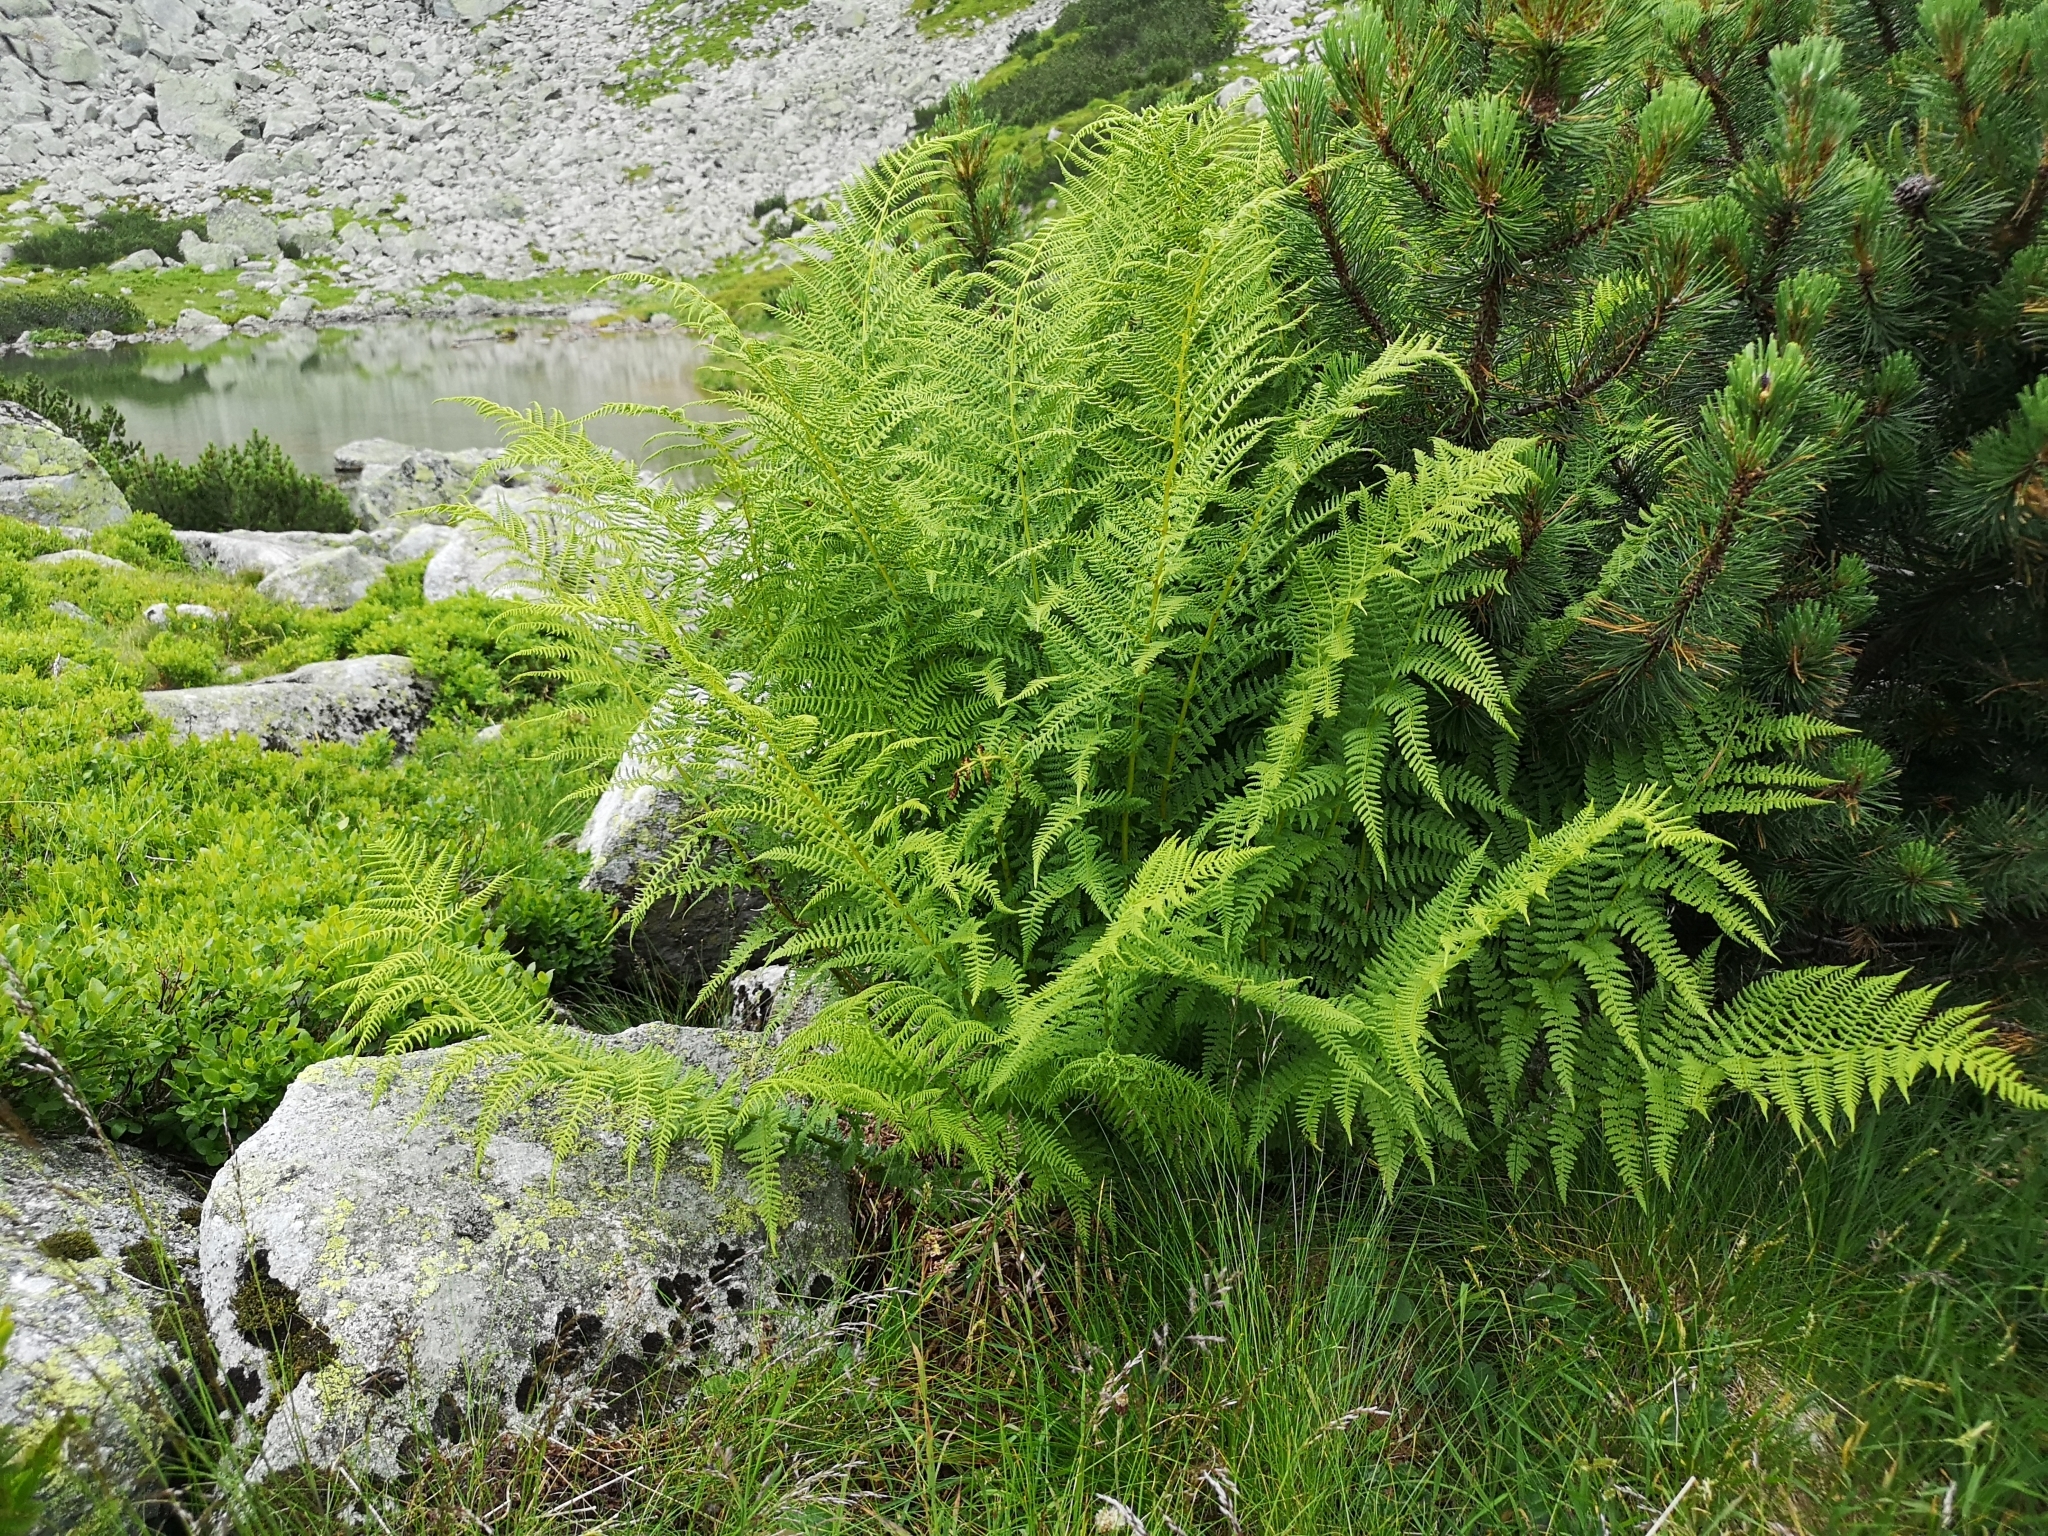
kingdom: Plantae
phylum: Tracheophyta
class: Polypodiopsida
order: Polypodiales
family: Athyriaceae
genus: Pseudathyrium
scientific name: Pseudathyrium alpestre
